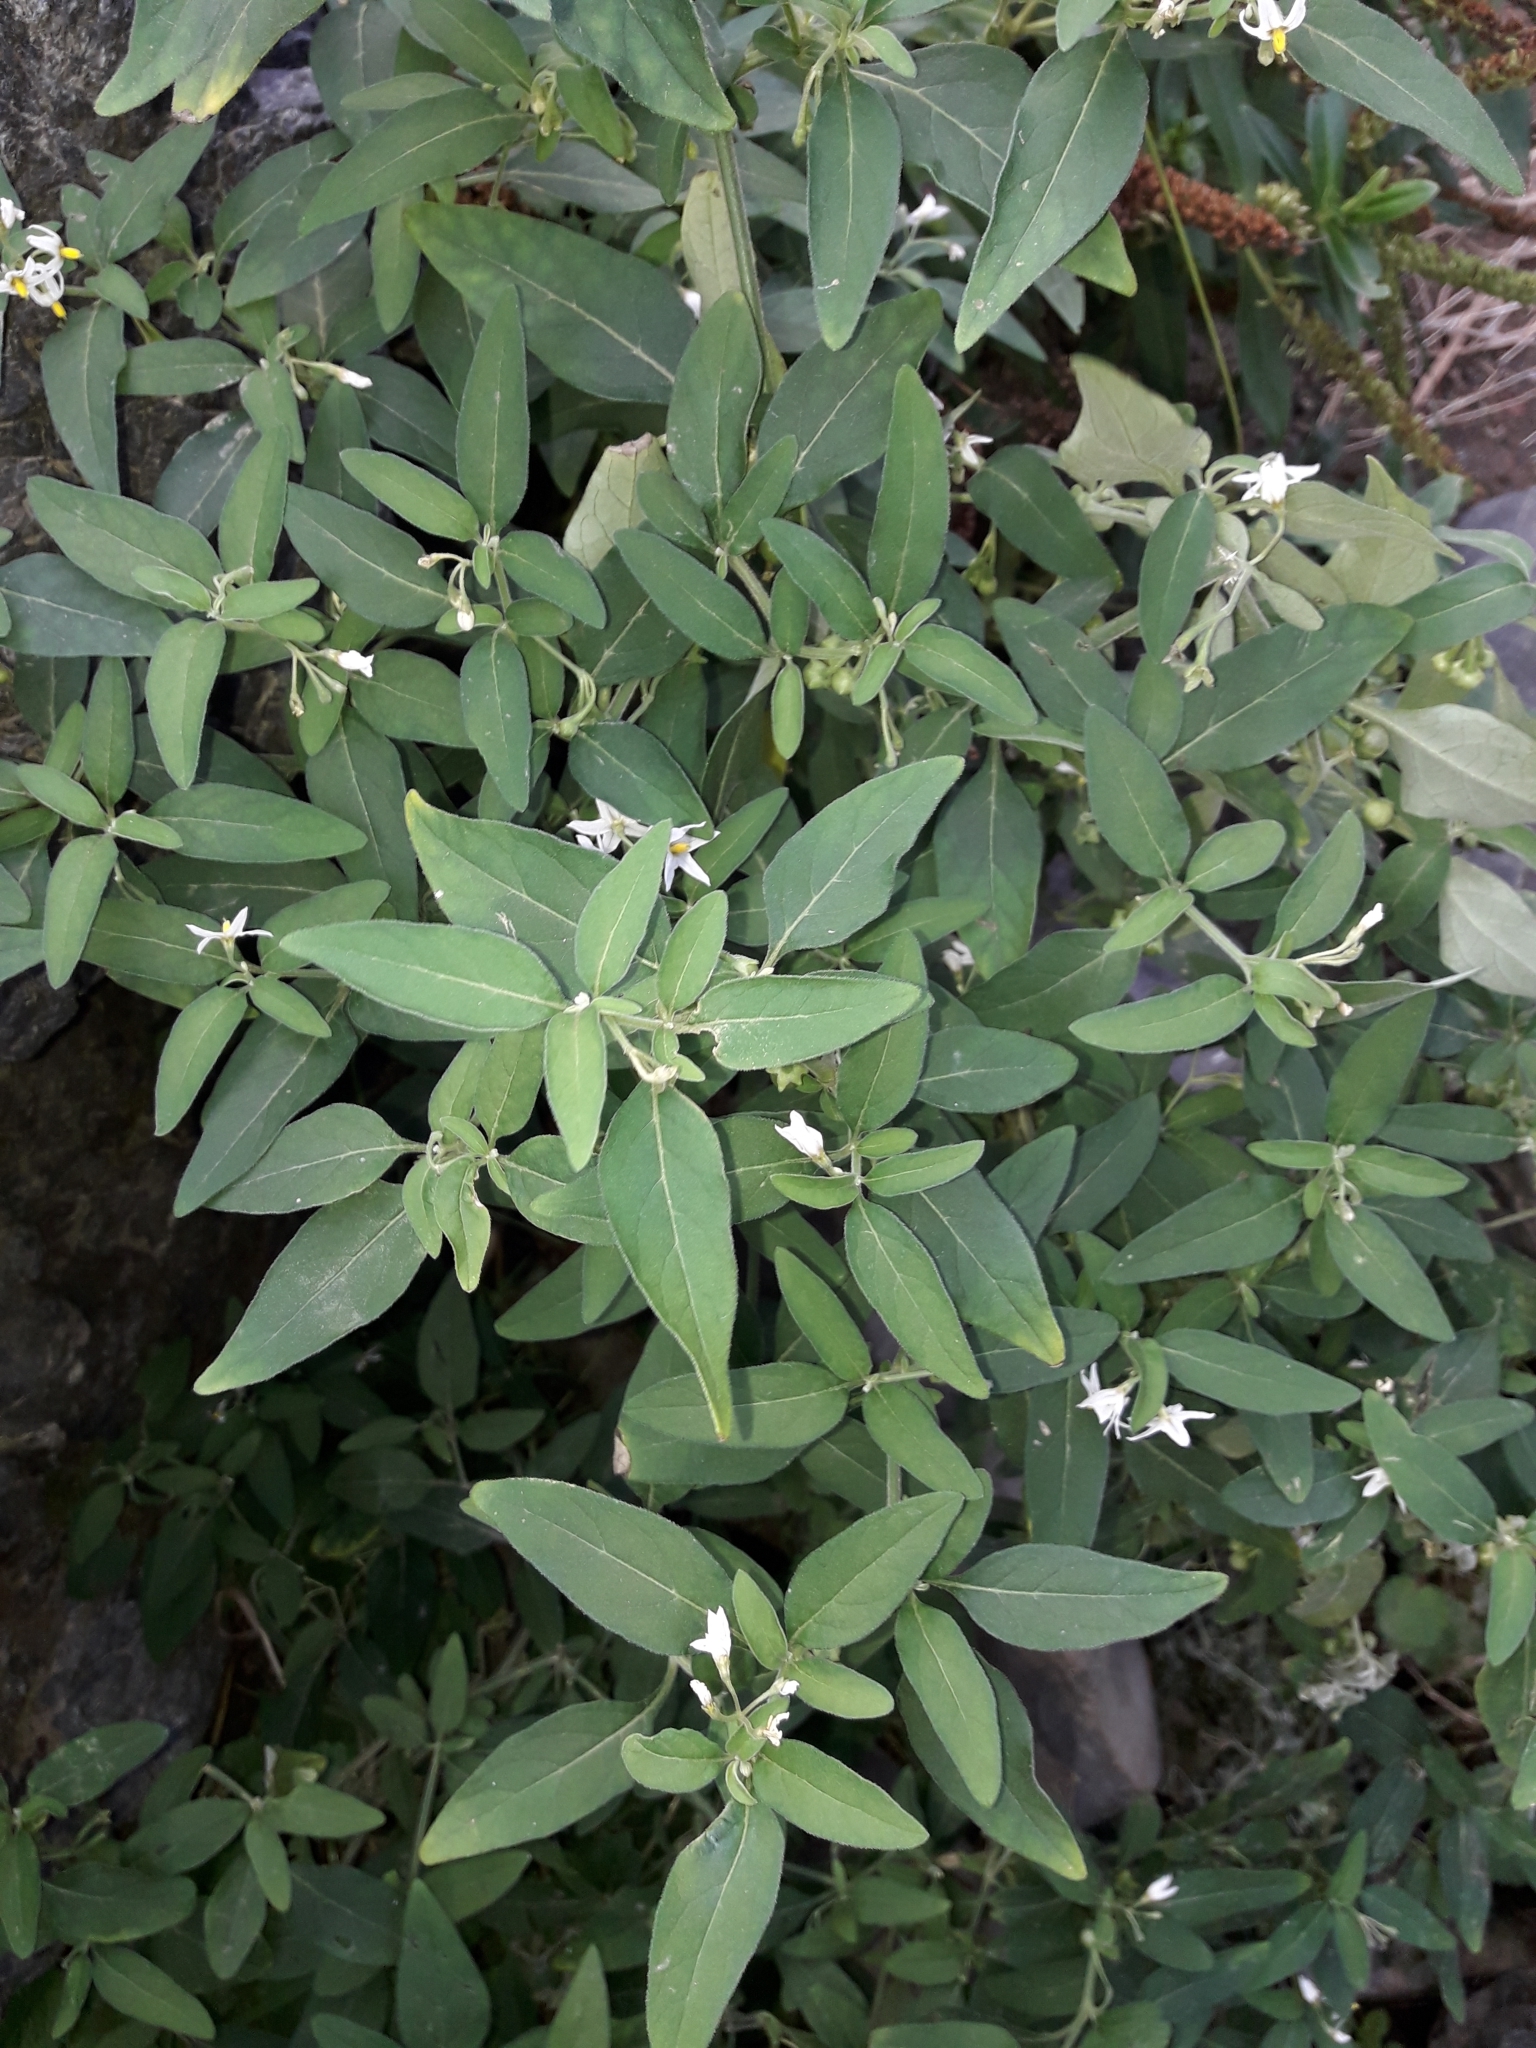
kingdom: Plantae
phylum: Tracheophyta
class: Magnoliopsida
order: Solanales
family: Solanaceae
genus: Solanum
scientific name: Solanum chenopodioides
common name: Tall nightshade
